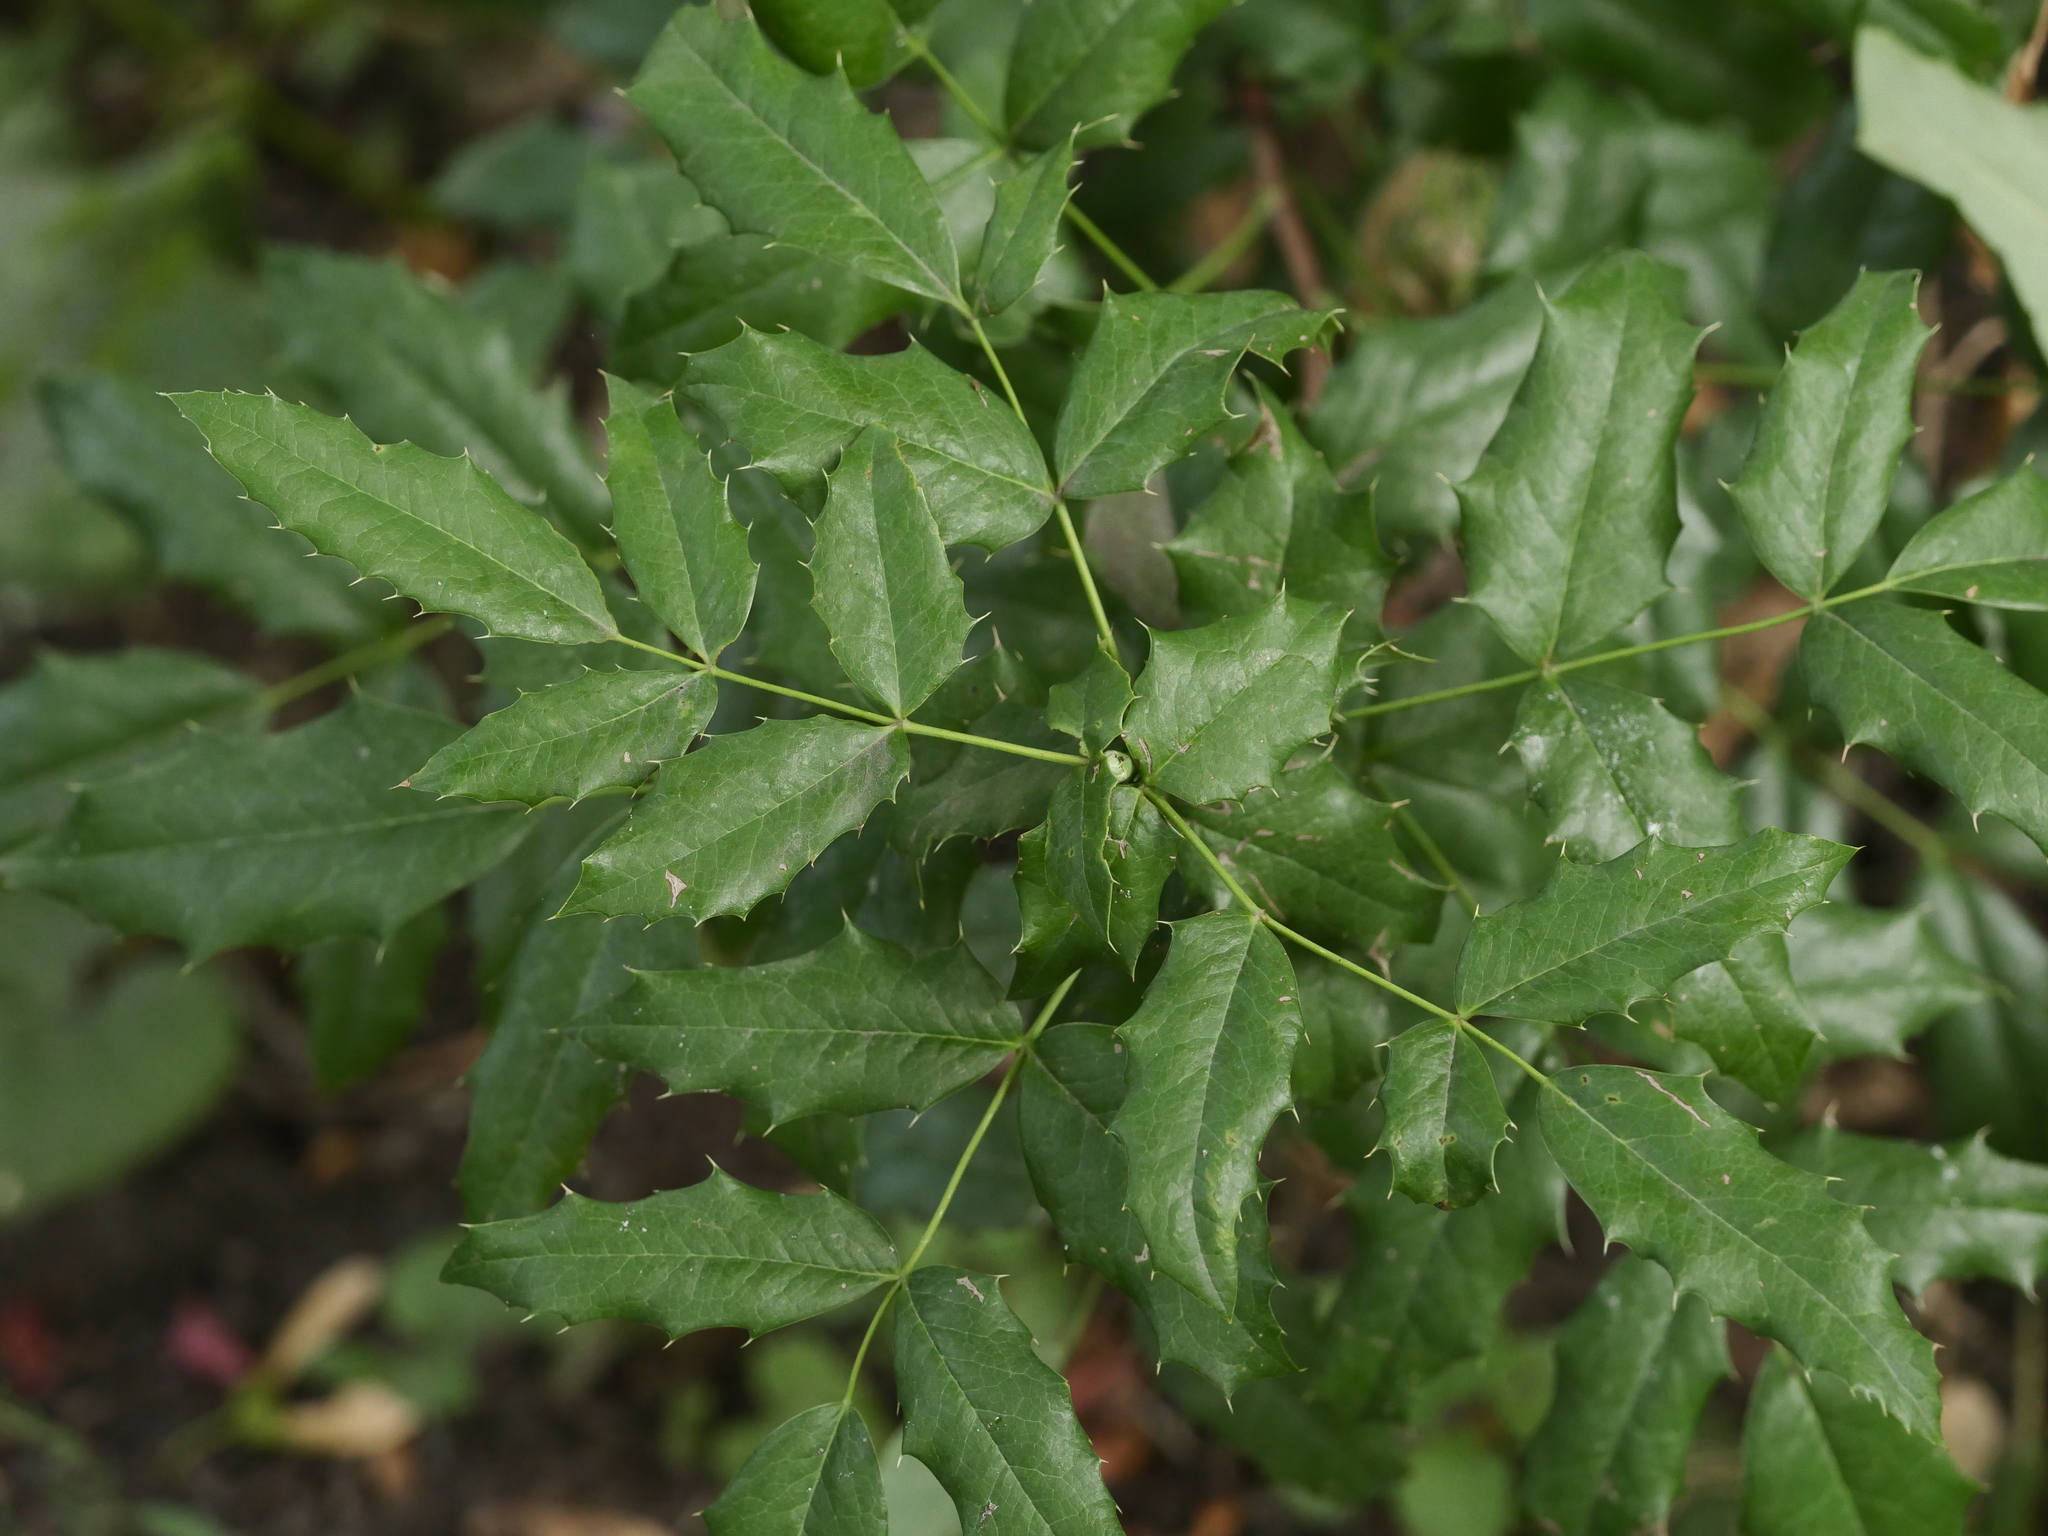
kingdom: Plantae
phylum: Tracheophyta
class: Magnoliopsida
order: Ranunculales
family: Berberidaceae
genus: Mahonia
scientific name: Mahonia aquifolium
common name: Oregon-grape
